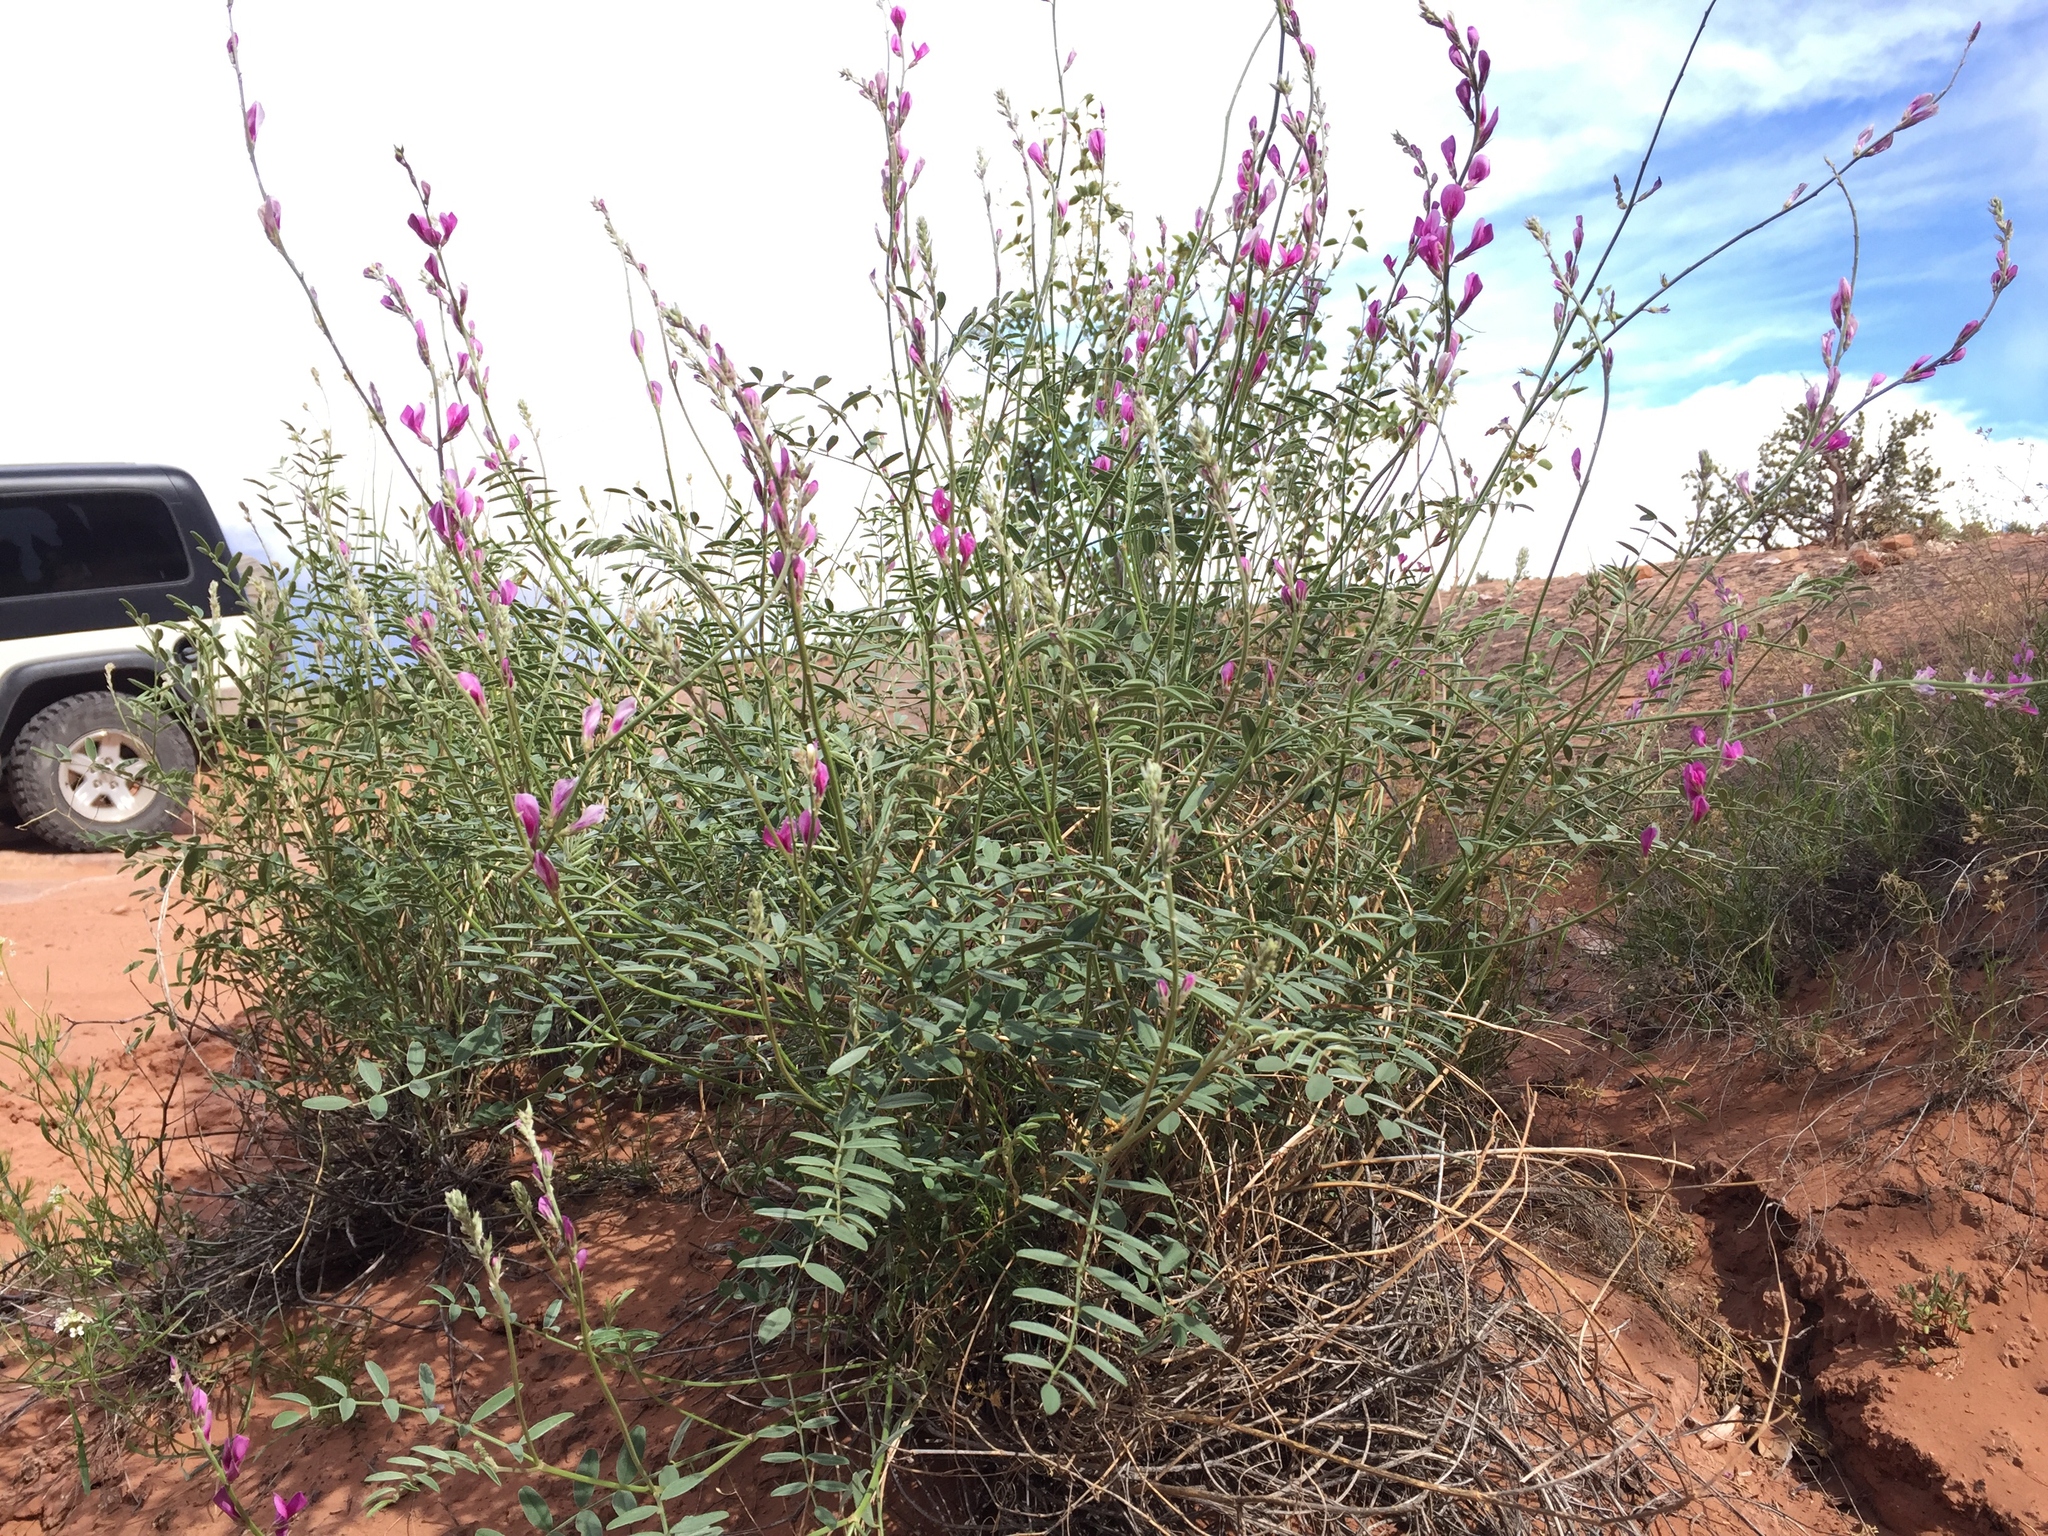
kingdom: Plantae
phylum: Tracheophyta
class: Magnoliopsida
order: Fabales
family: Fabaceae
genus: Hedysarum
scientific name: Hedysarum boreale
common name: Northern sweet-vetch
